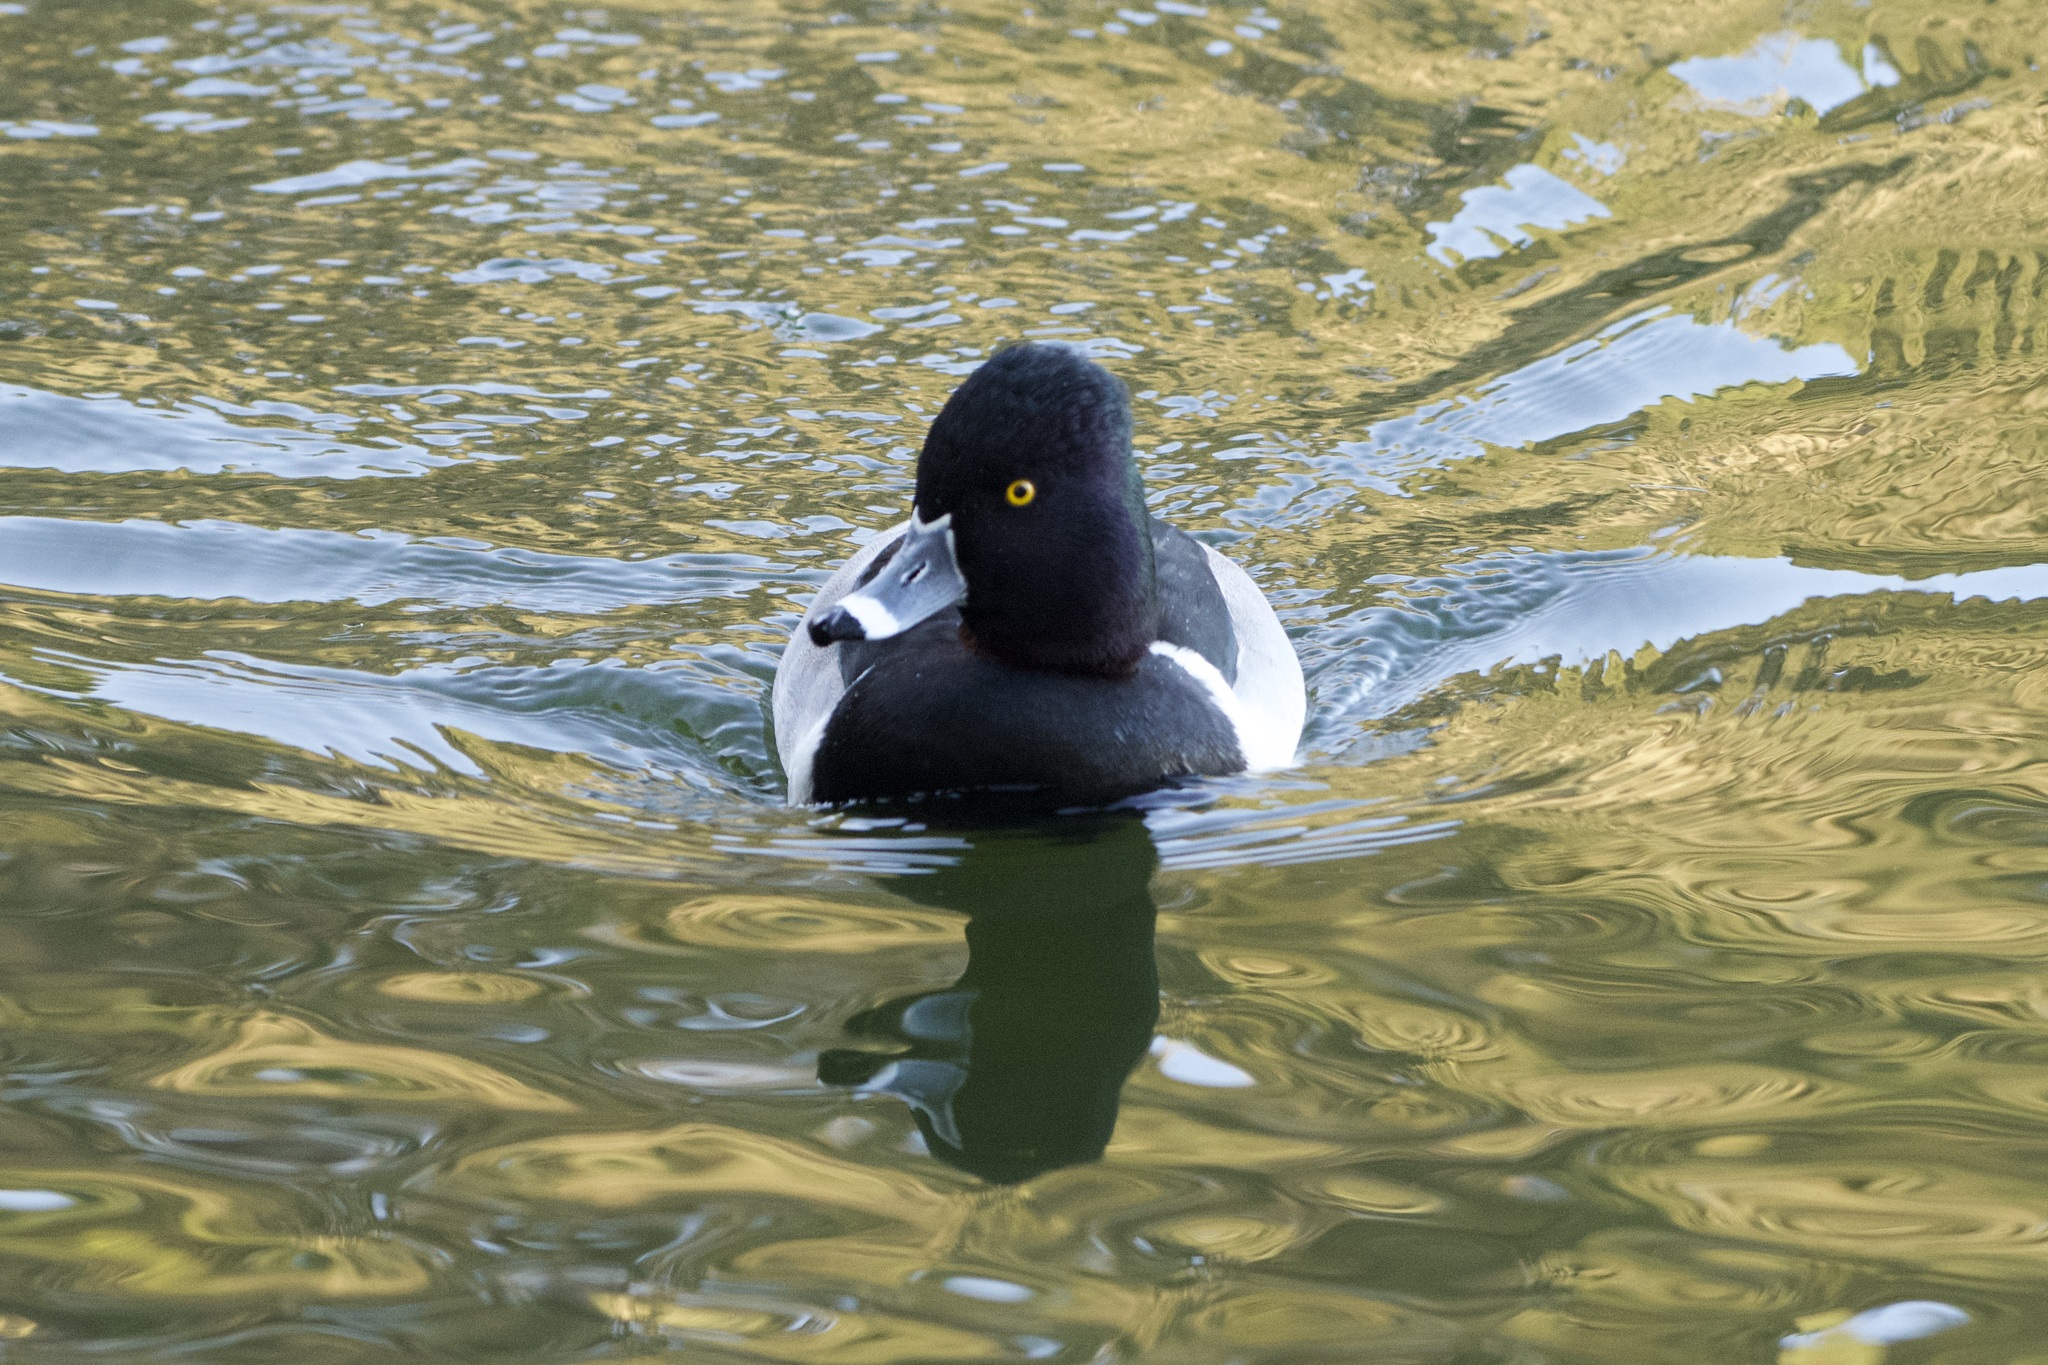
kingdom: Animalia
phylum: Chordata
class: Aves
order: Anseriformes
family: Anatidae
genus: Aythya
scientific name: Aythya collaris
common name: Ring-necked duck
